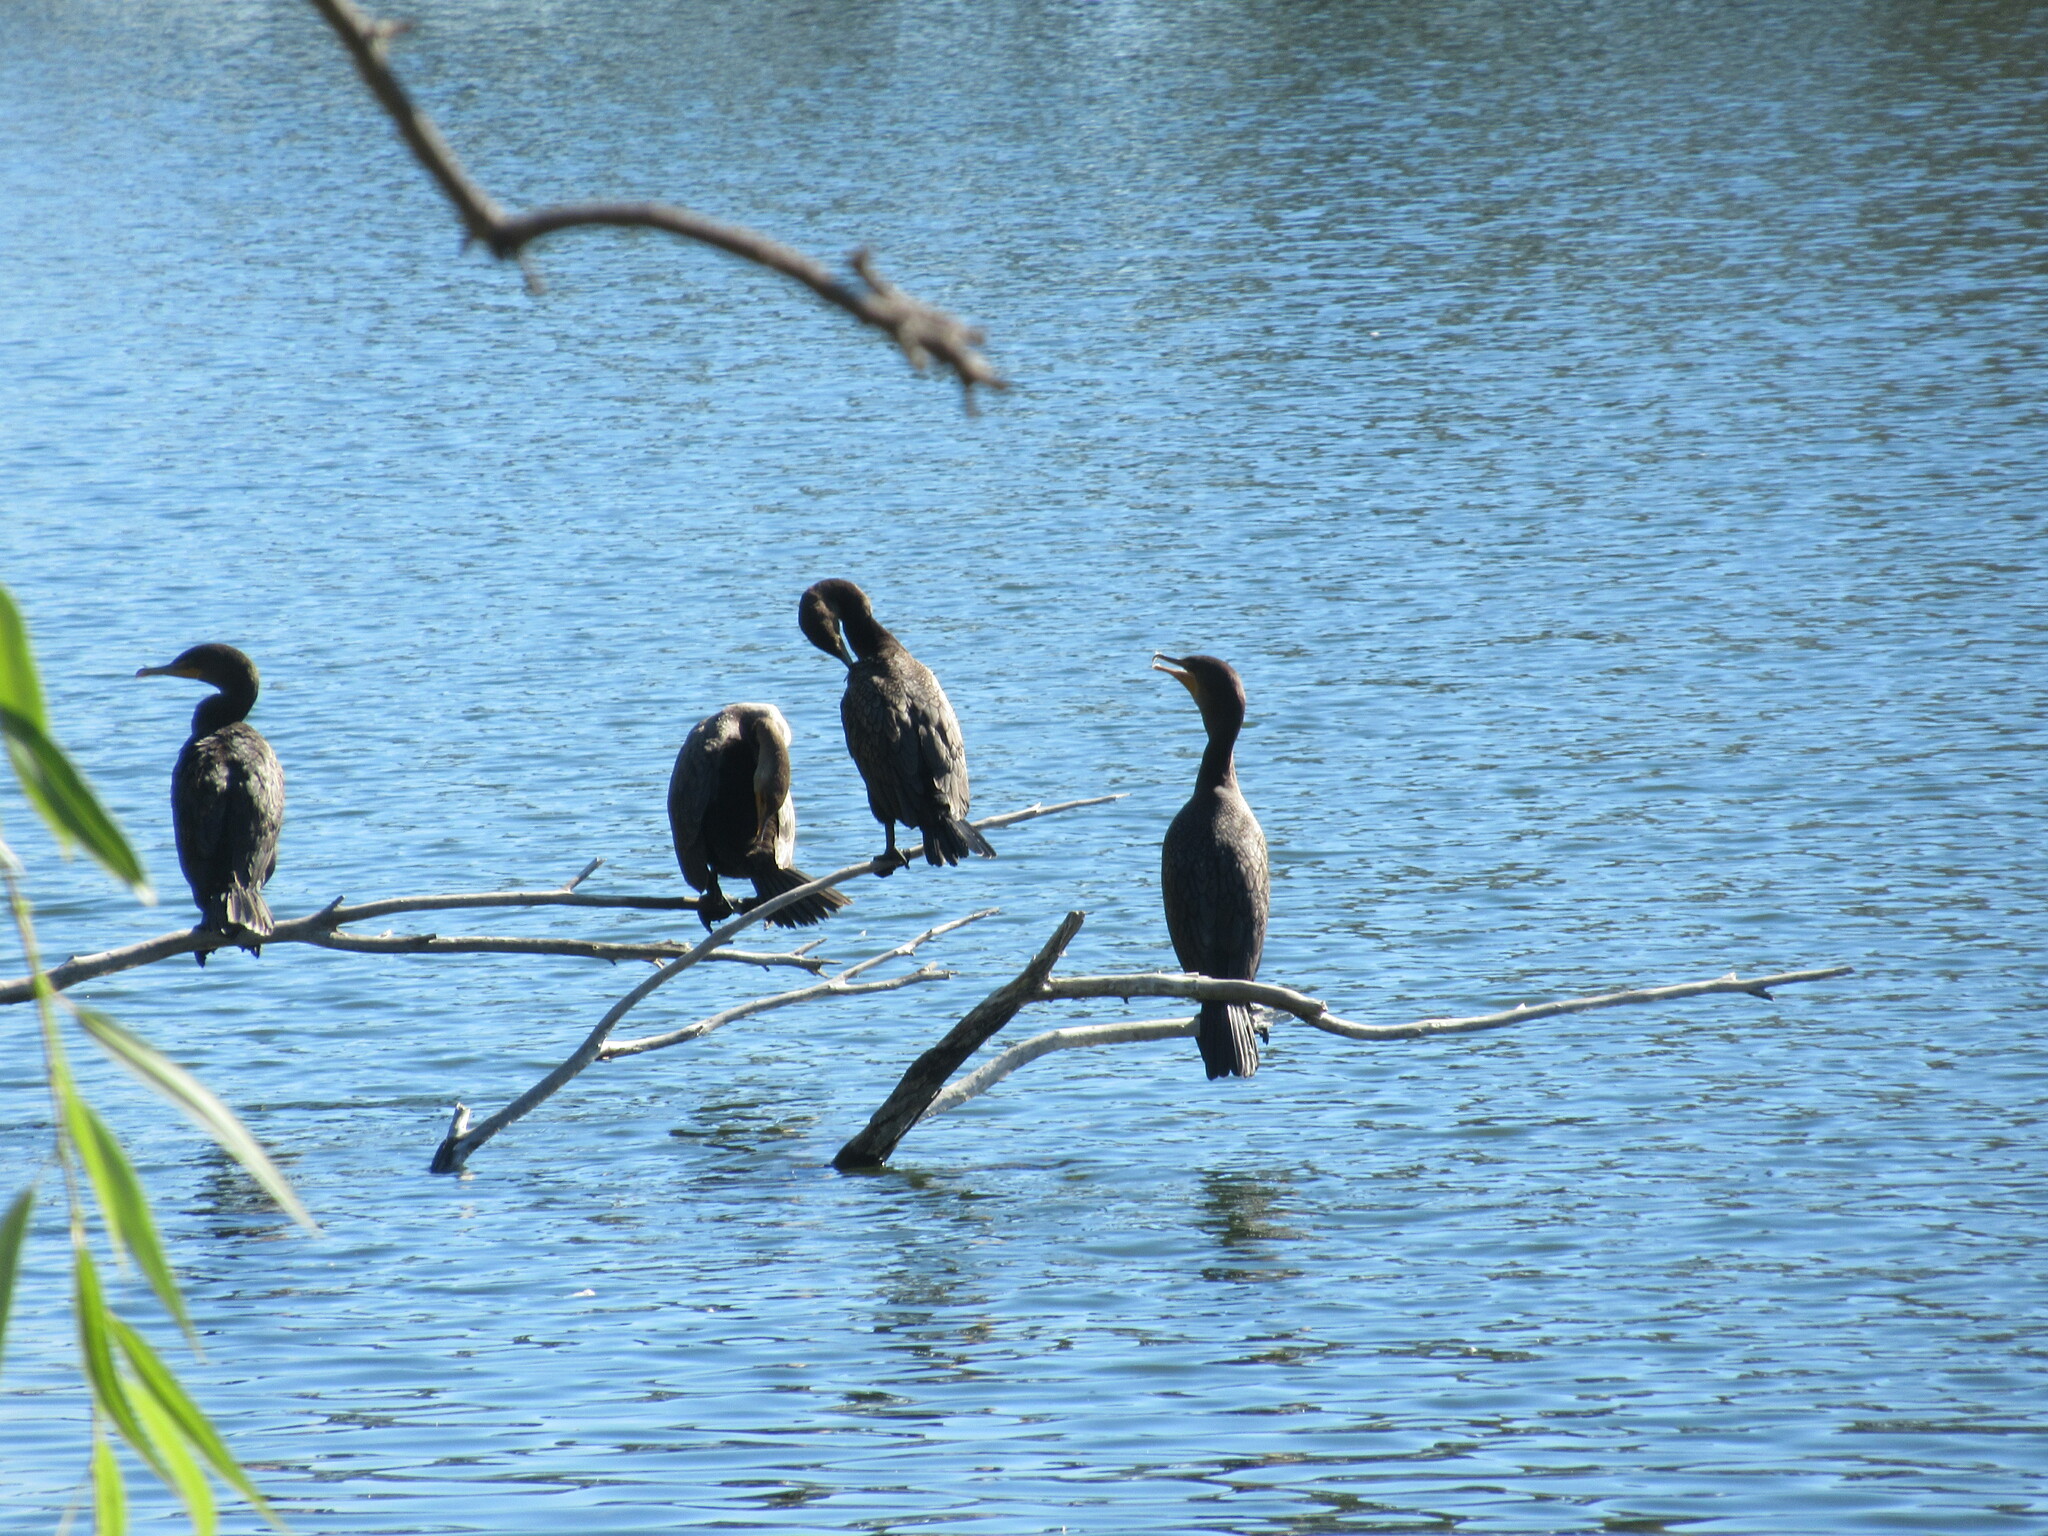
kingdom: Animalia
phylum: Chordata
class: Aves
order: Suliformes
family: Phalacrocoracidae
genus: Phalacrocorax
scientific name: Phalacrocorax auritus
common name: Double-crested cormorant
